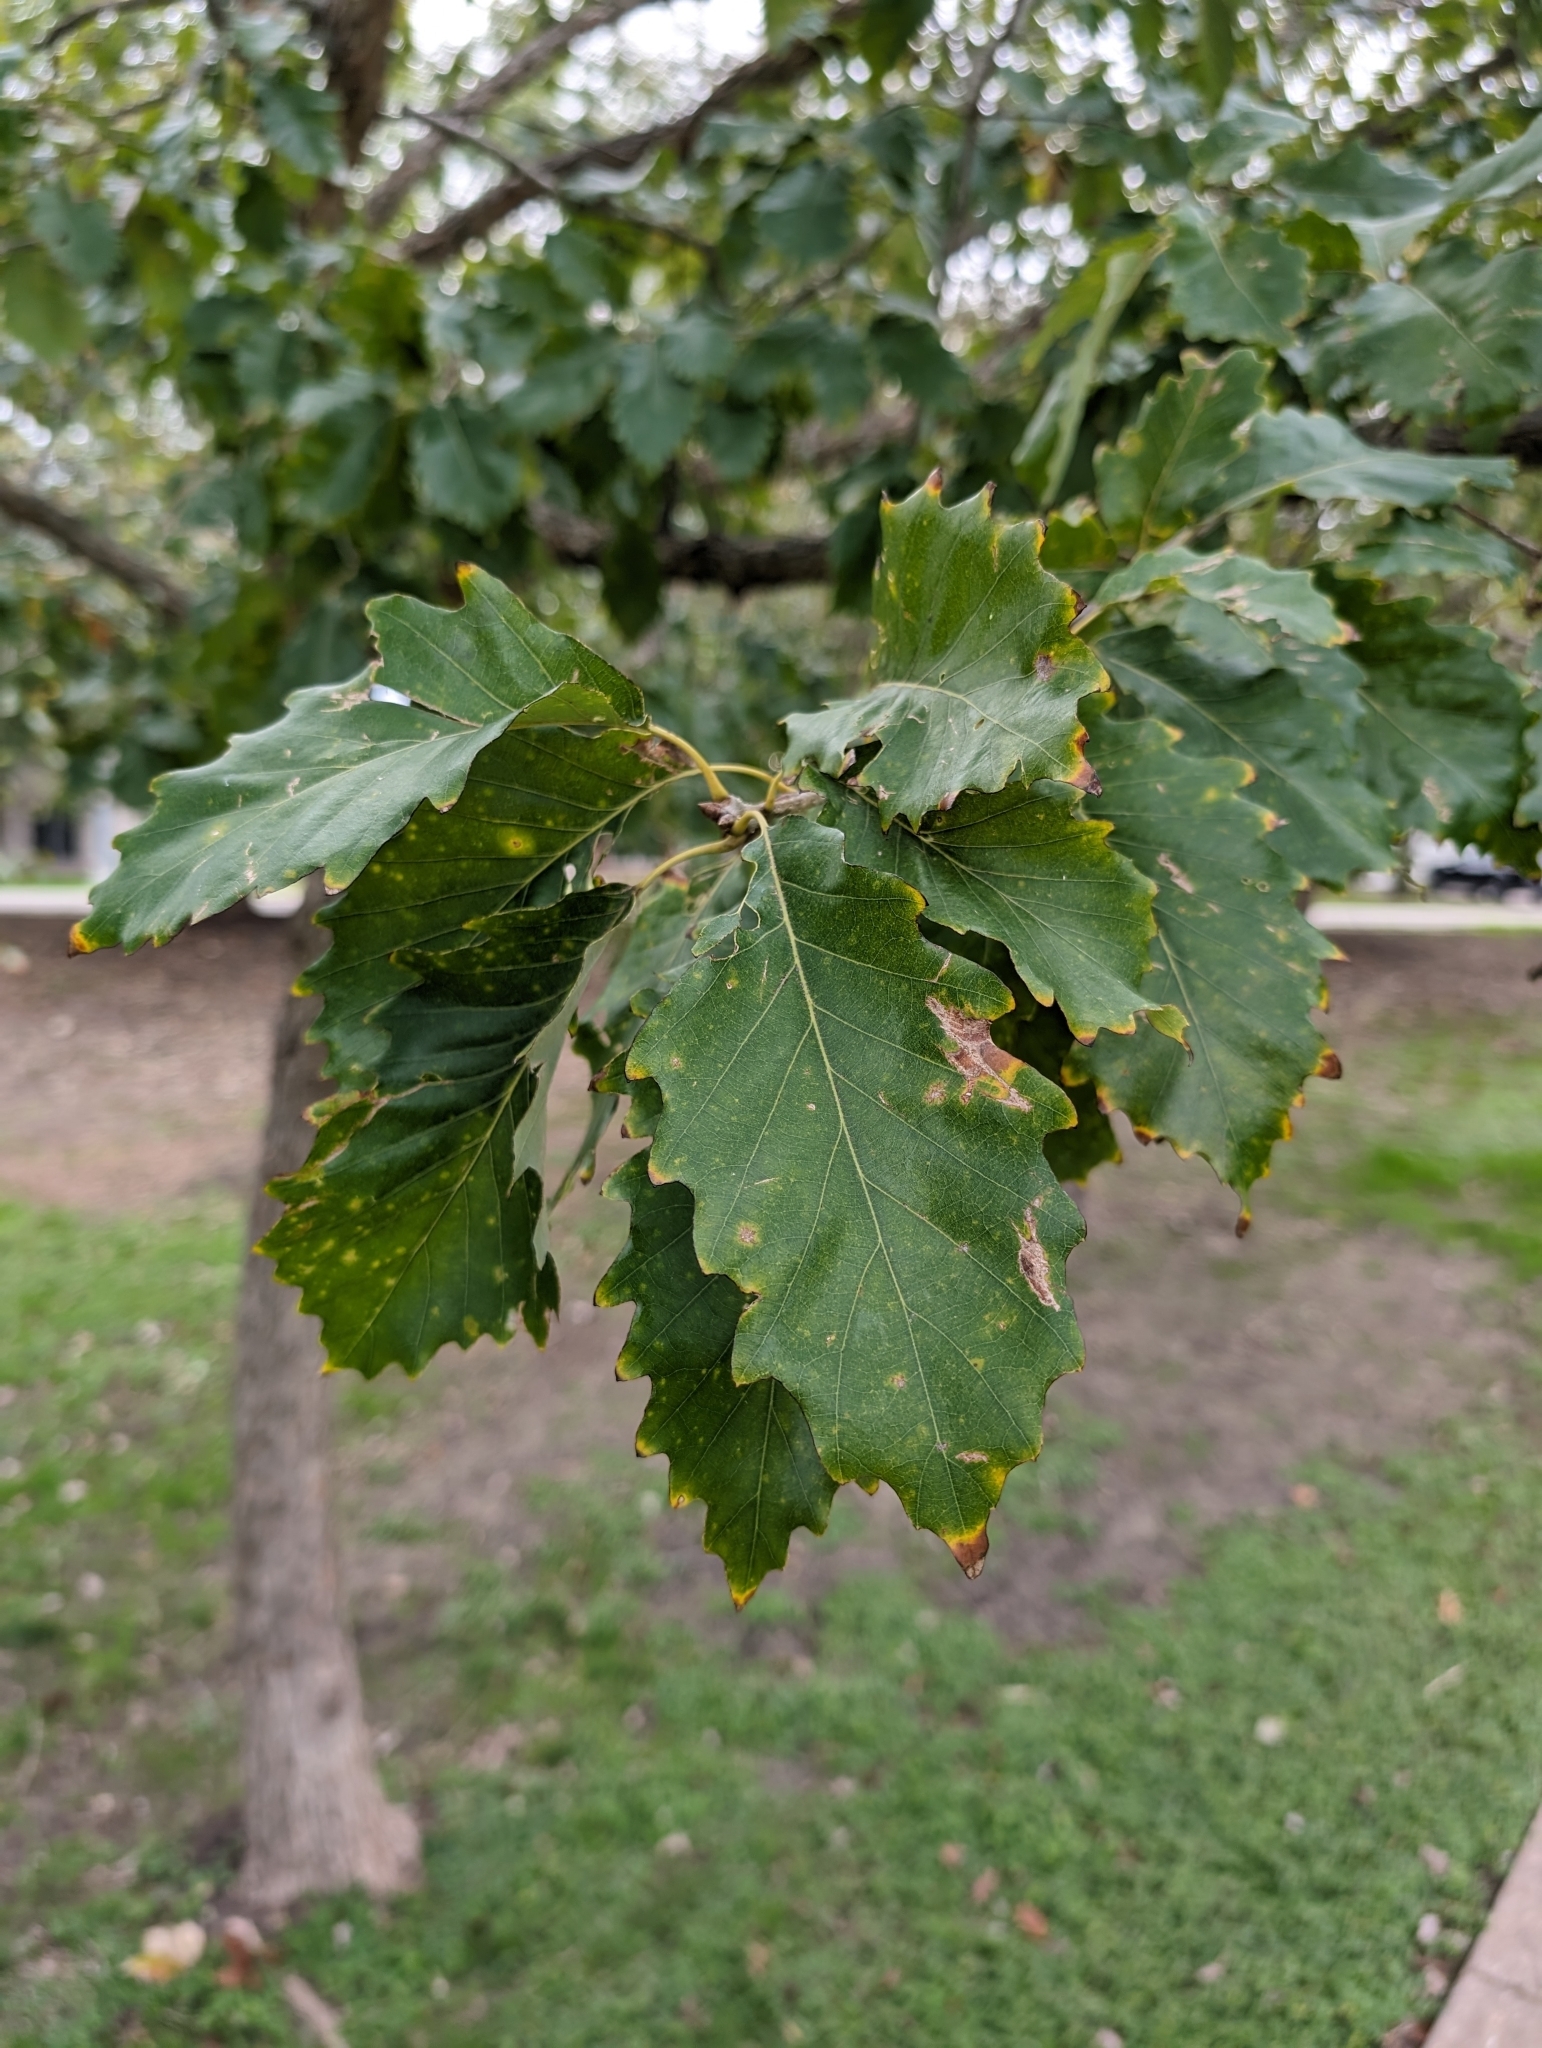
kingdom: Plantae
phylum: Tracheophyta
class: Magnoliopsida
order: Fagales
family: Fagaceae
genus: Quercus
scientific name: Quercus muehlenbergii
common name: Chinkapin oak
